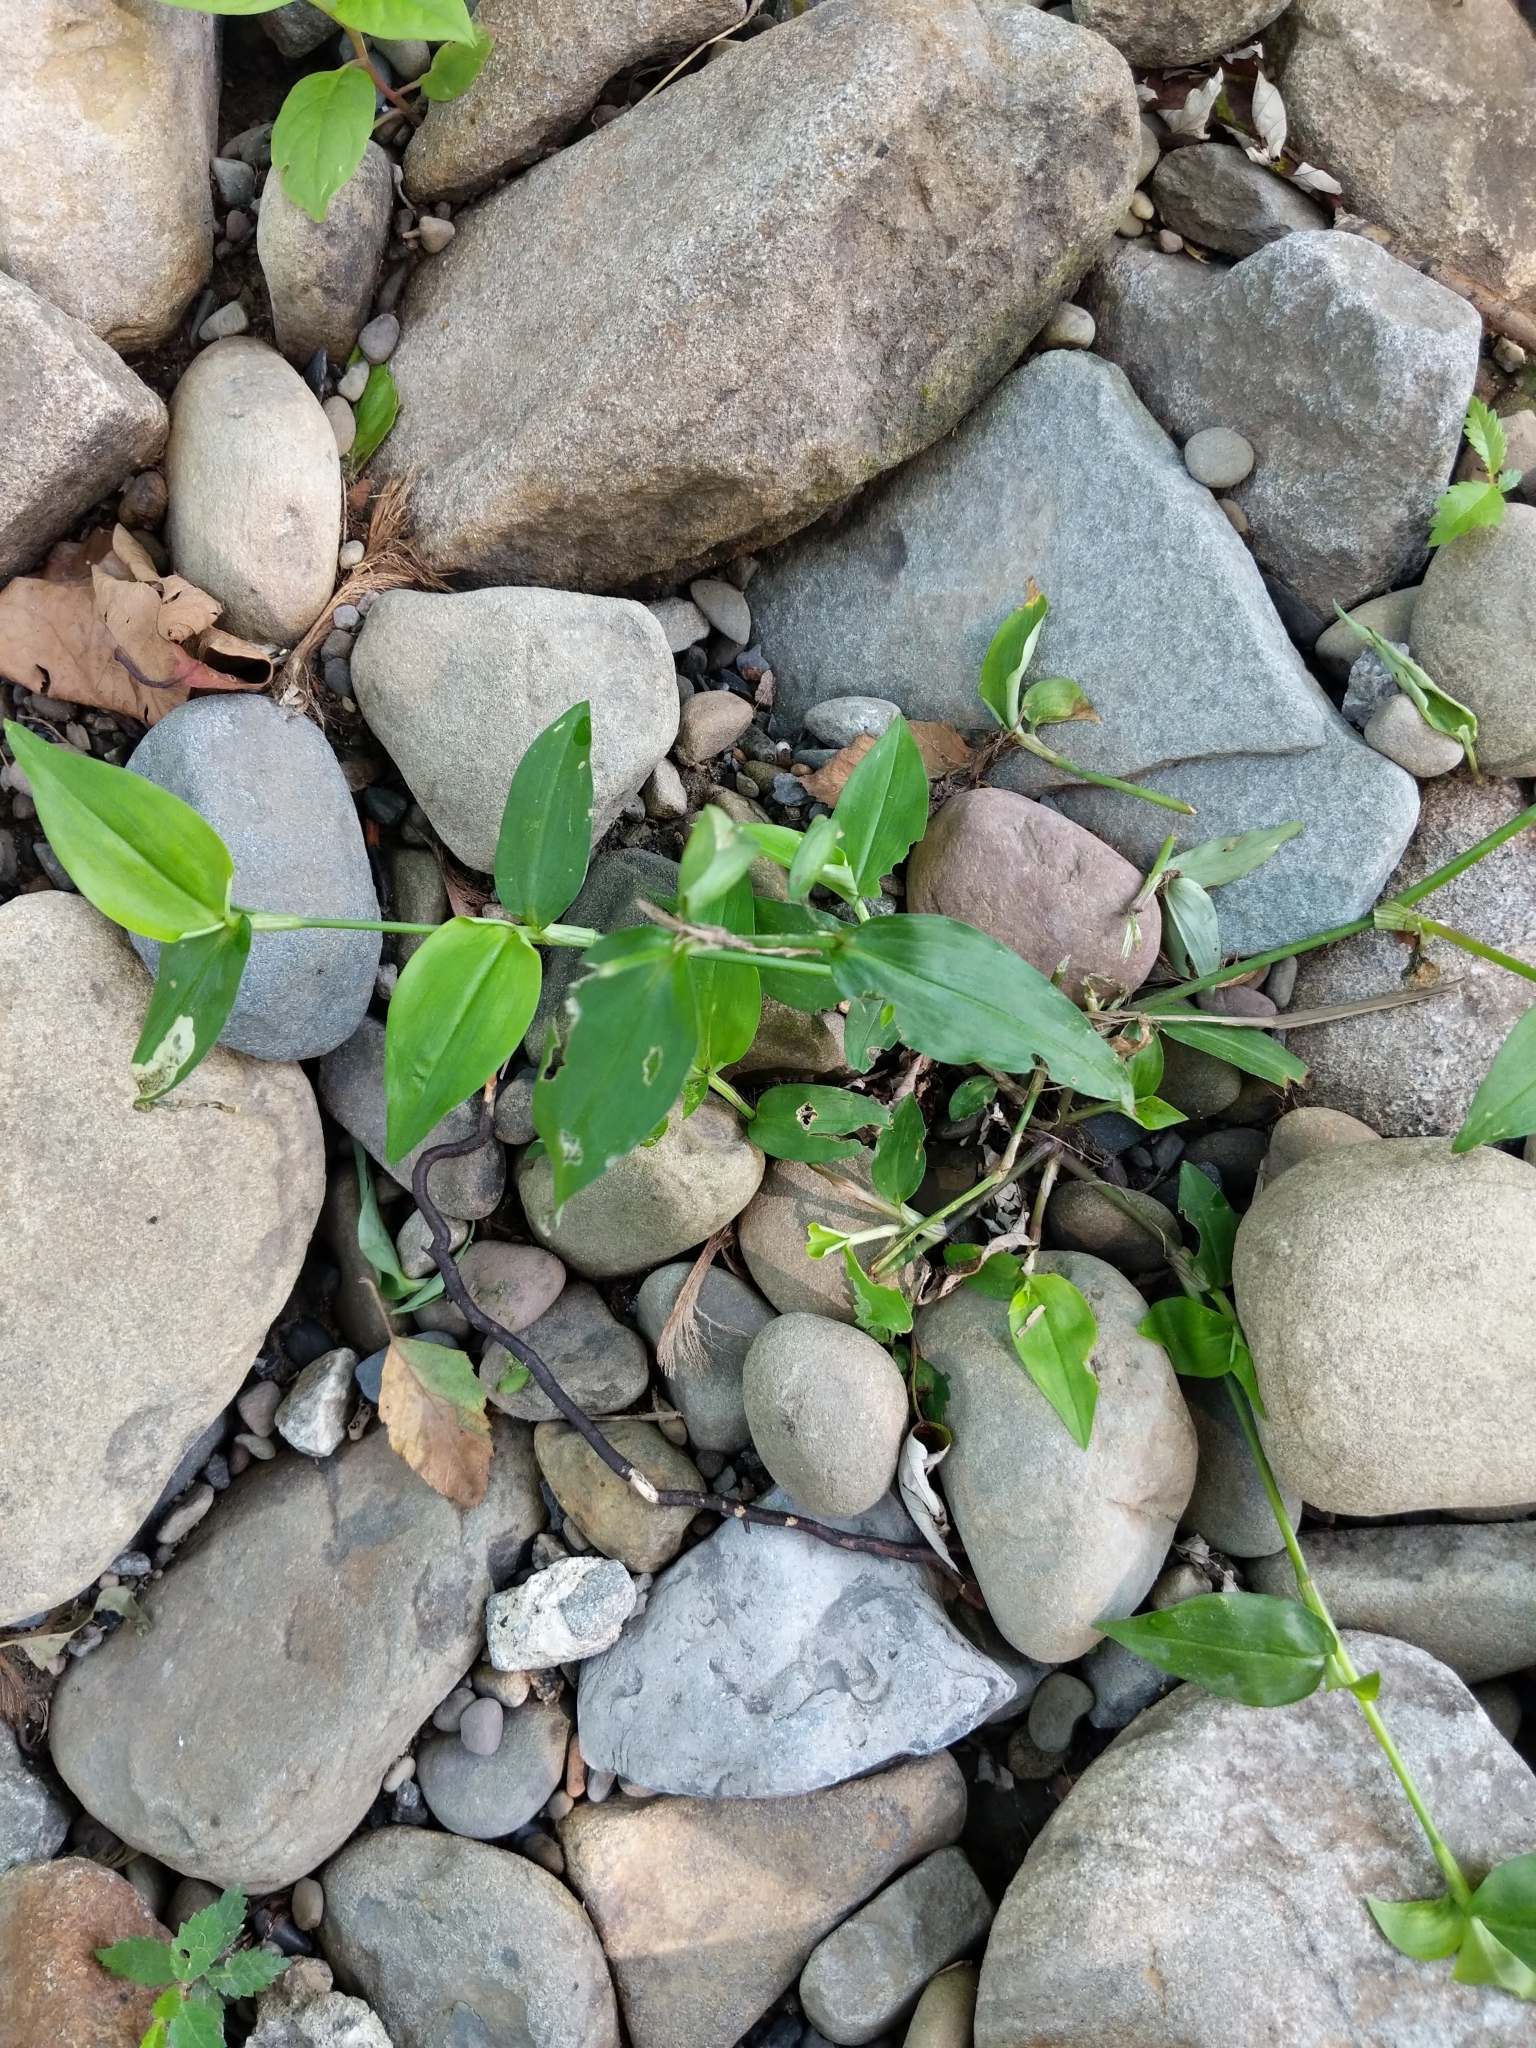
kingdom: Plantae
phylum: Tracheophyta
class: Liliopsida
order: Commelinales
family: Commelinaceae
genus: Commelina
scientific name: Commelina communis
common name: Asiatic dayflower
